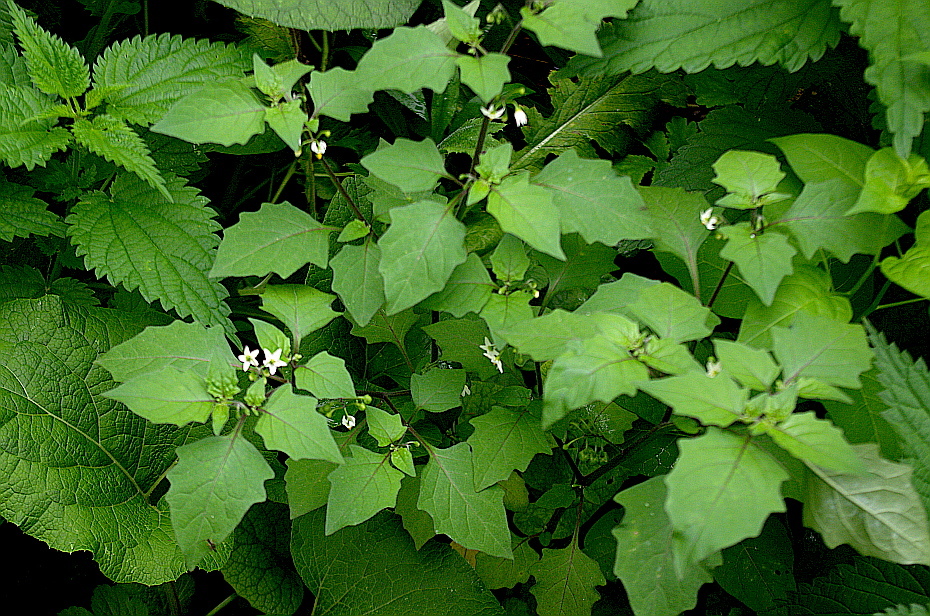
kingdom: Plantae
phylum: Tracheophyta
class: Magnoliopsida
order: Solanales
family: Solanaceae
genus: Solanum
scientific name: Solanum nigrum
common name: Black nightshade
